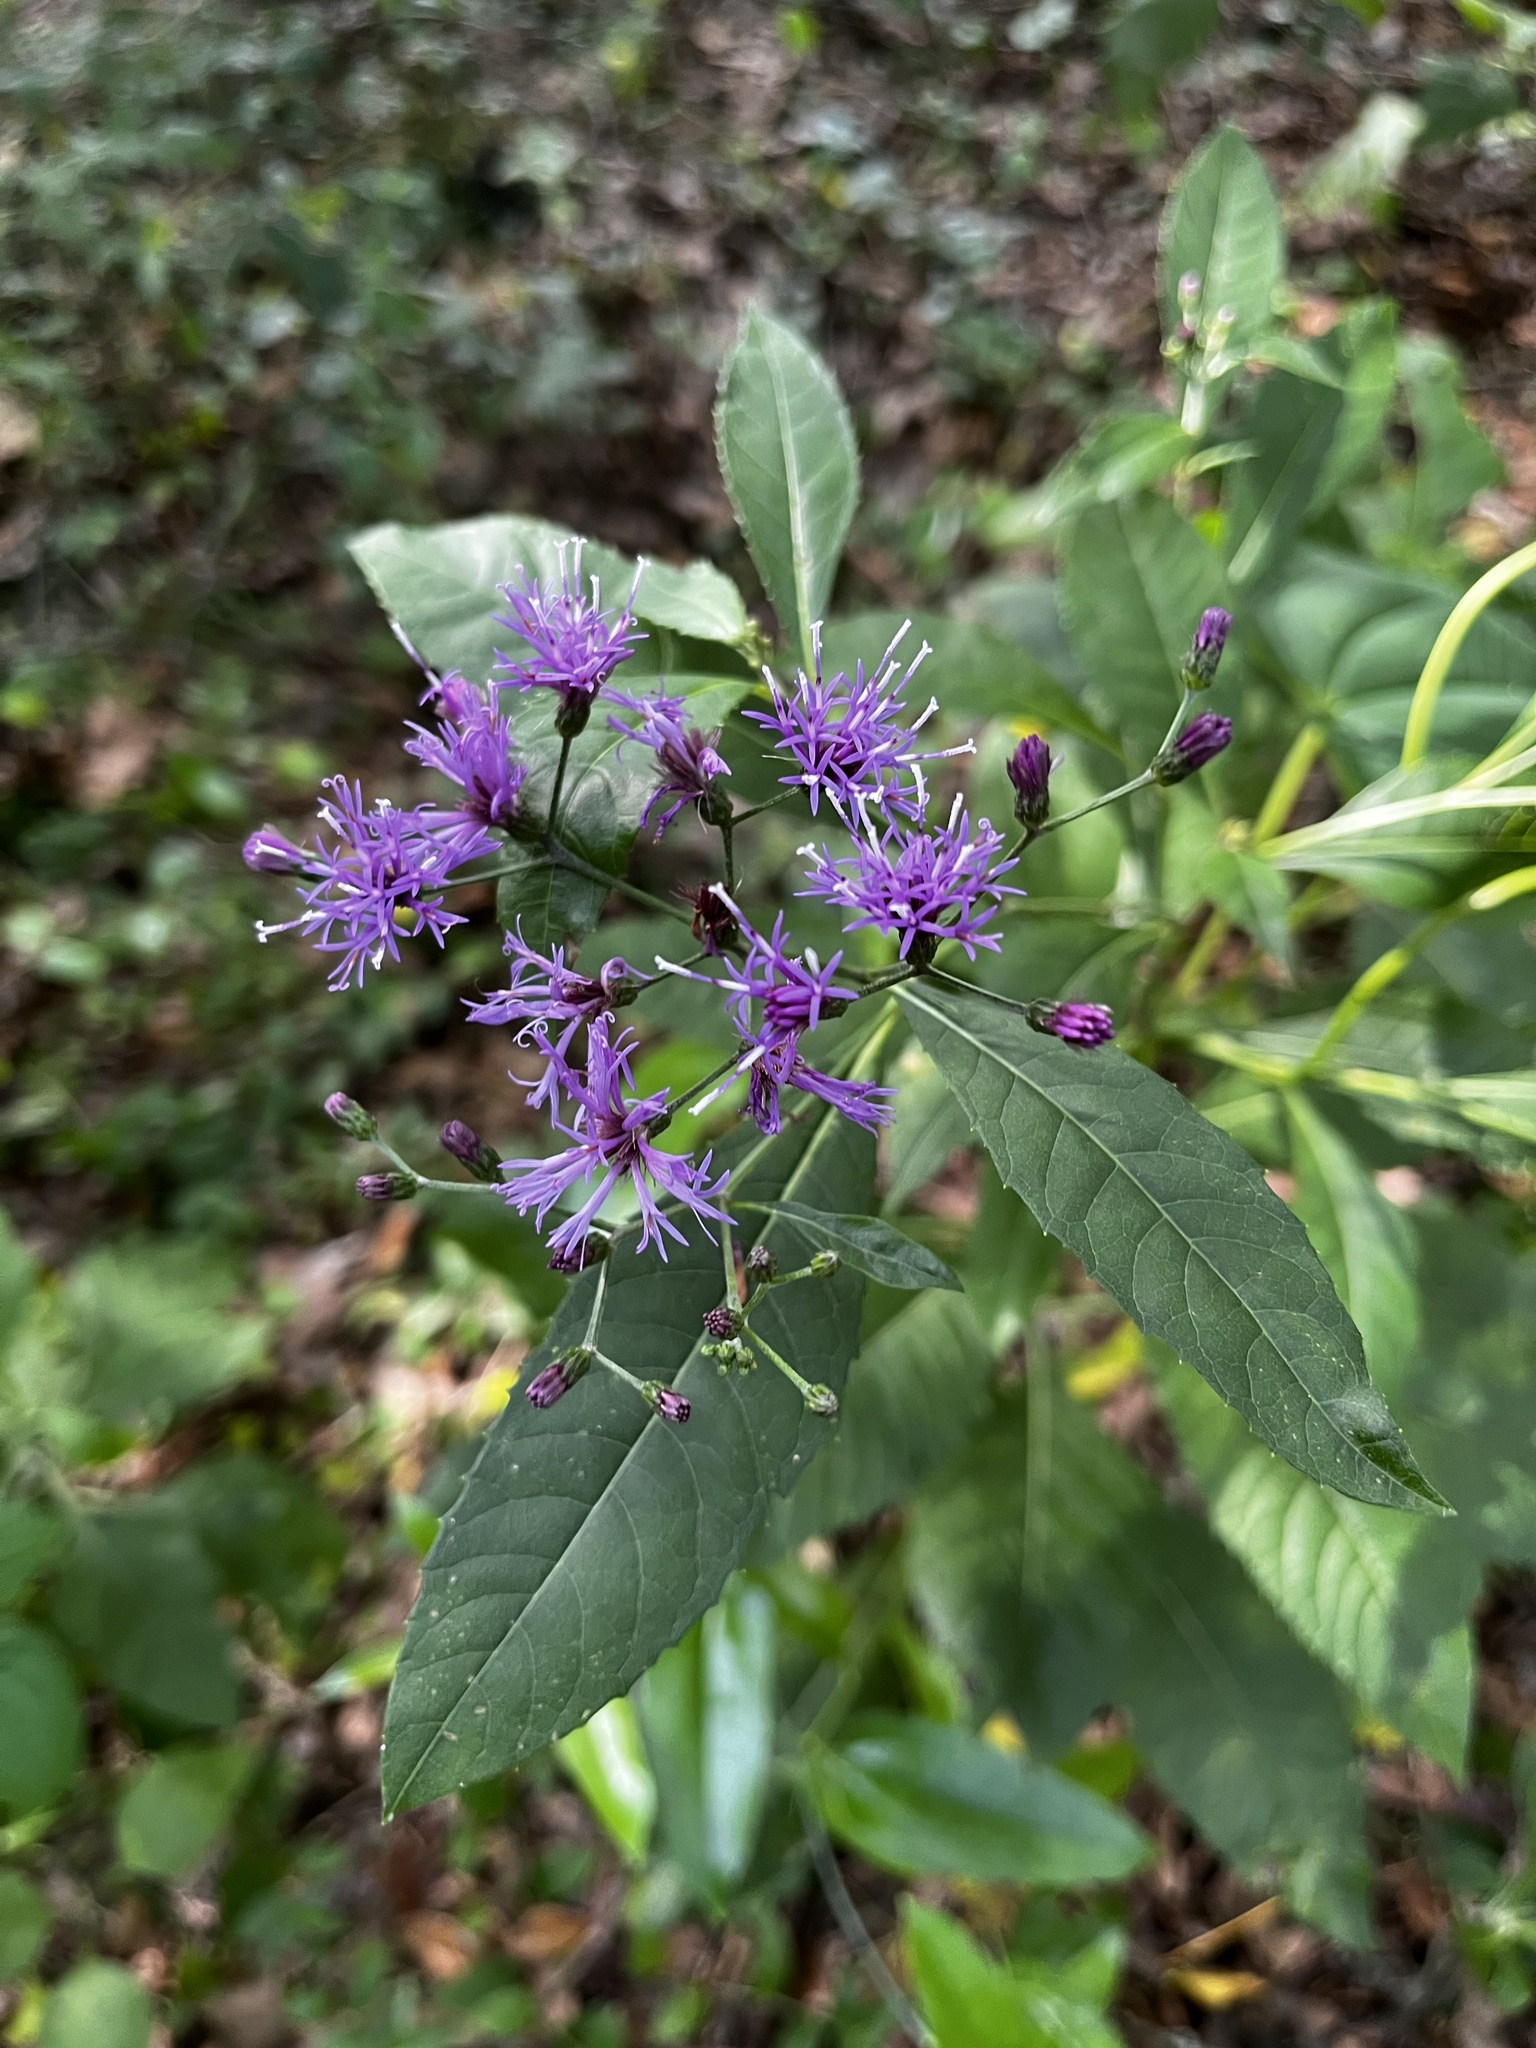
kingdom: Plantae
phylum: Tracheophyta
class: Magnoliopsida
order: Asterales
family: Asteraceae
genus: Vernonia
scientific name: Vernonia gigantea
